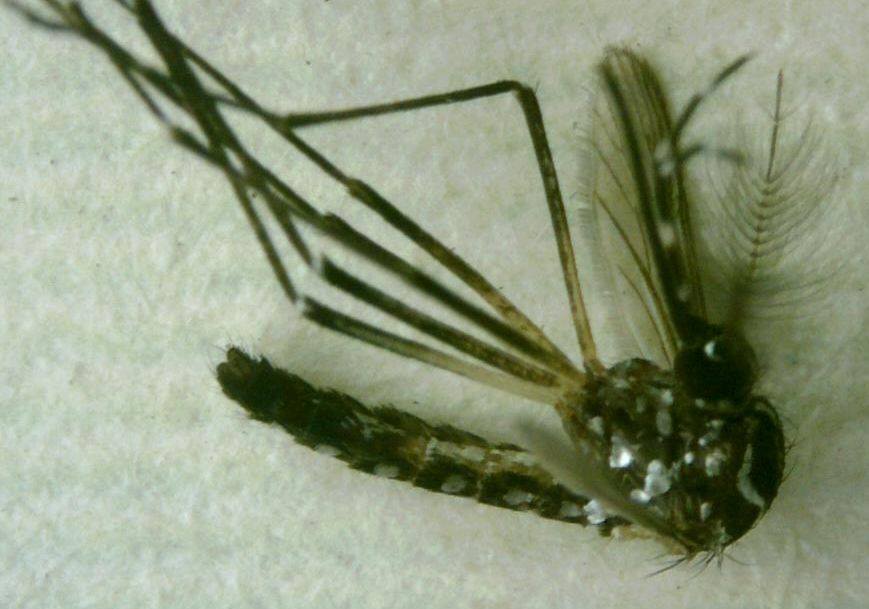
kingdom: Animalia
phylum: Arthropoda
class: Insecta
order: Diptera
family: Culicidae
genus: Aedes
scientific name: Aedes aegypti
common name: Yellow fever mosquito
